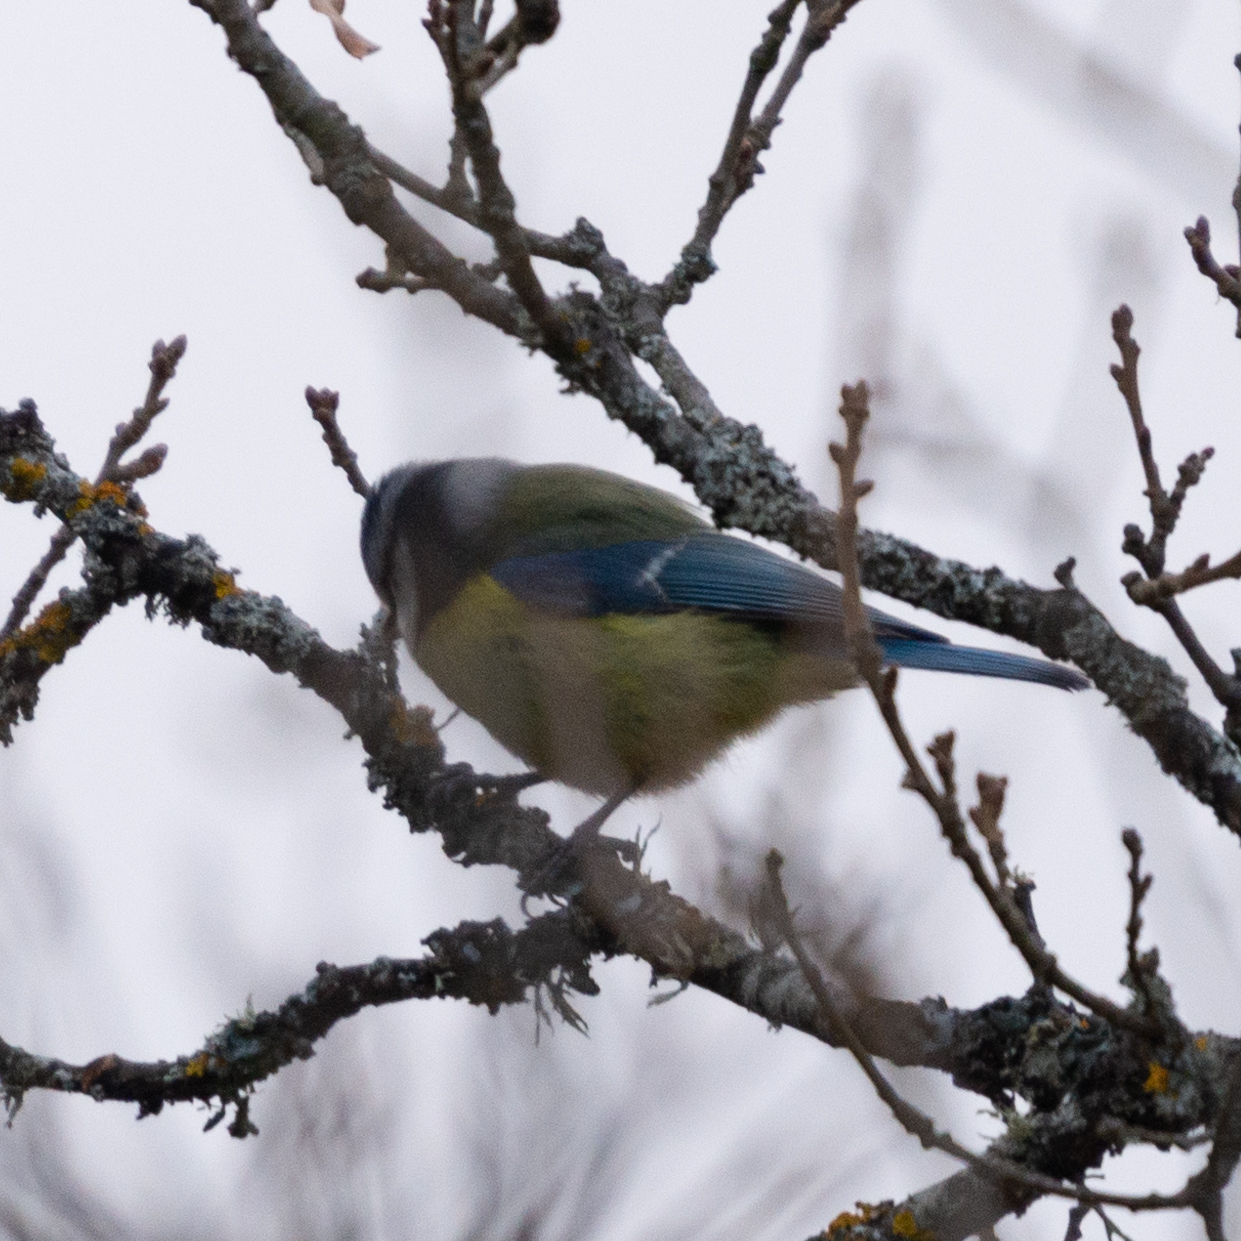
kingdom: Animalia
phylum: Chordata
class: Aves
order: Passeriformes
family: Paridae
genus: Cyanistes
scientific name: Cyanistes caeruleus
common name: Eurasian blue tit
